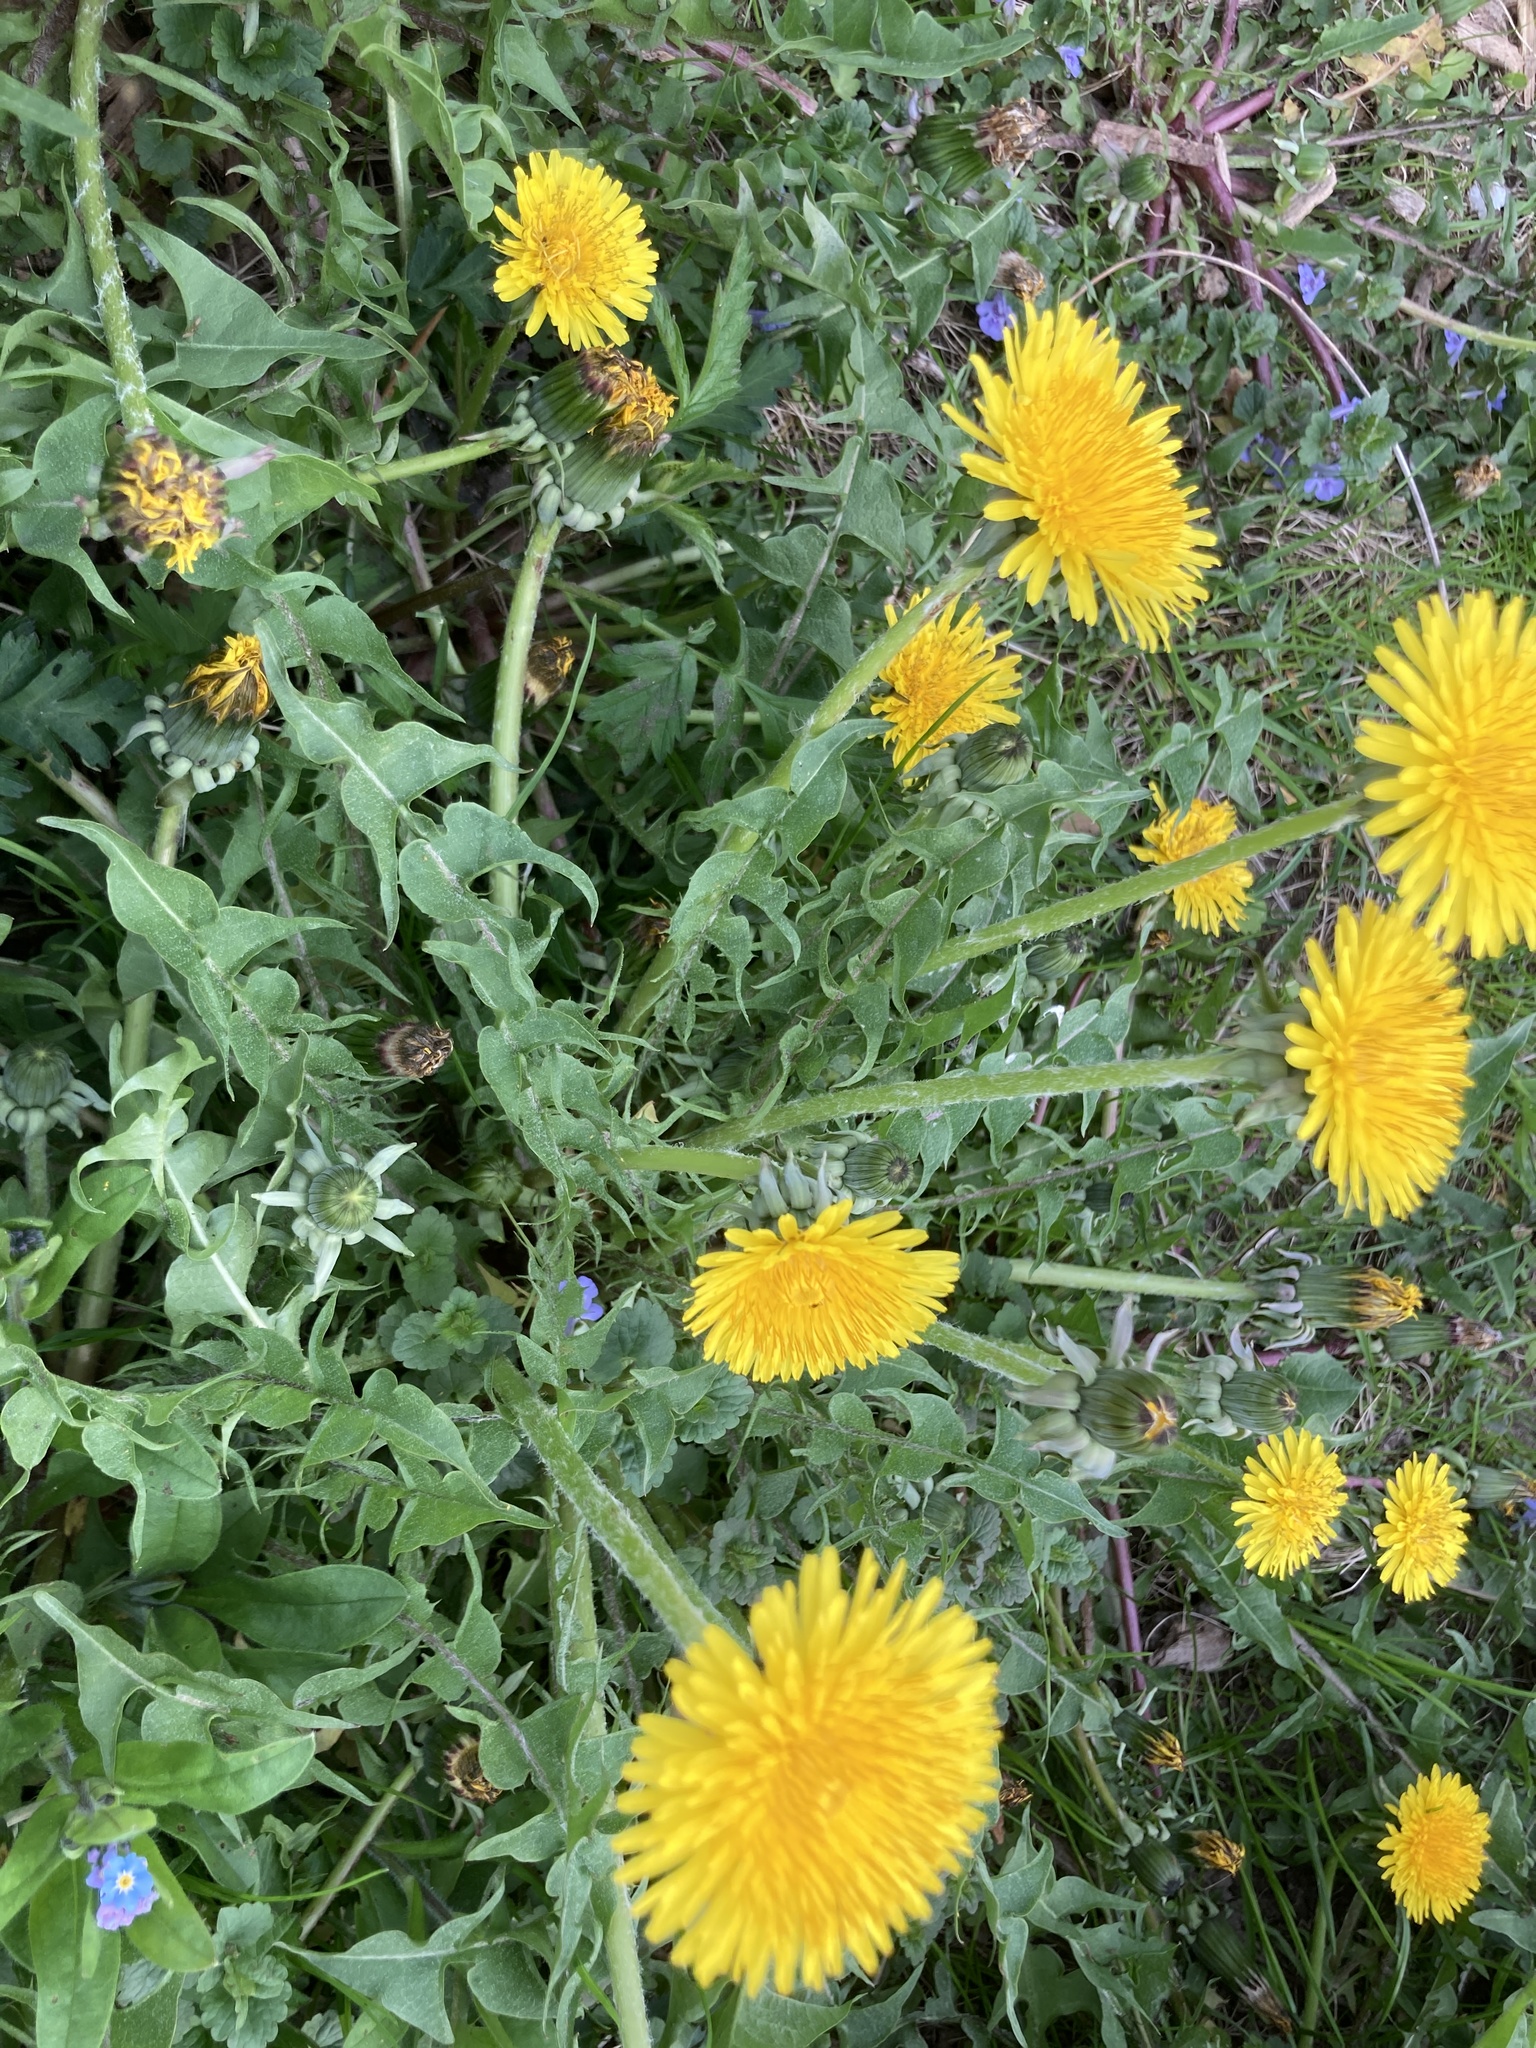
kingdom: Plantae
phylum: Tracheophyta
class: Magnoliopsida
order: Asterales
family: Asteraceae
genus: Taraxacum
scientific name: Taraxacum officinale
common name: Common dandelion
